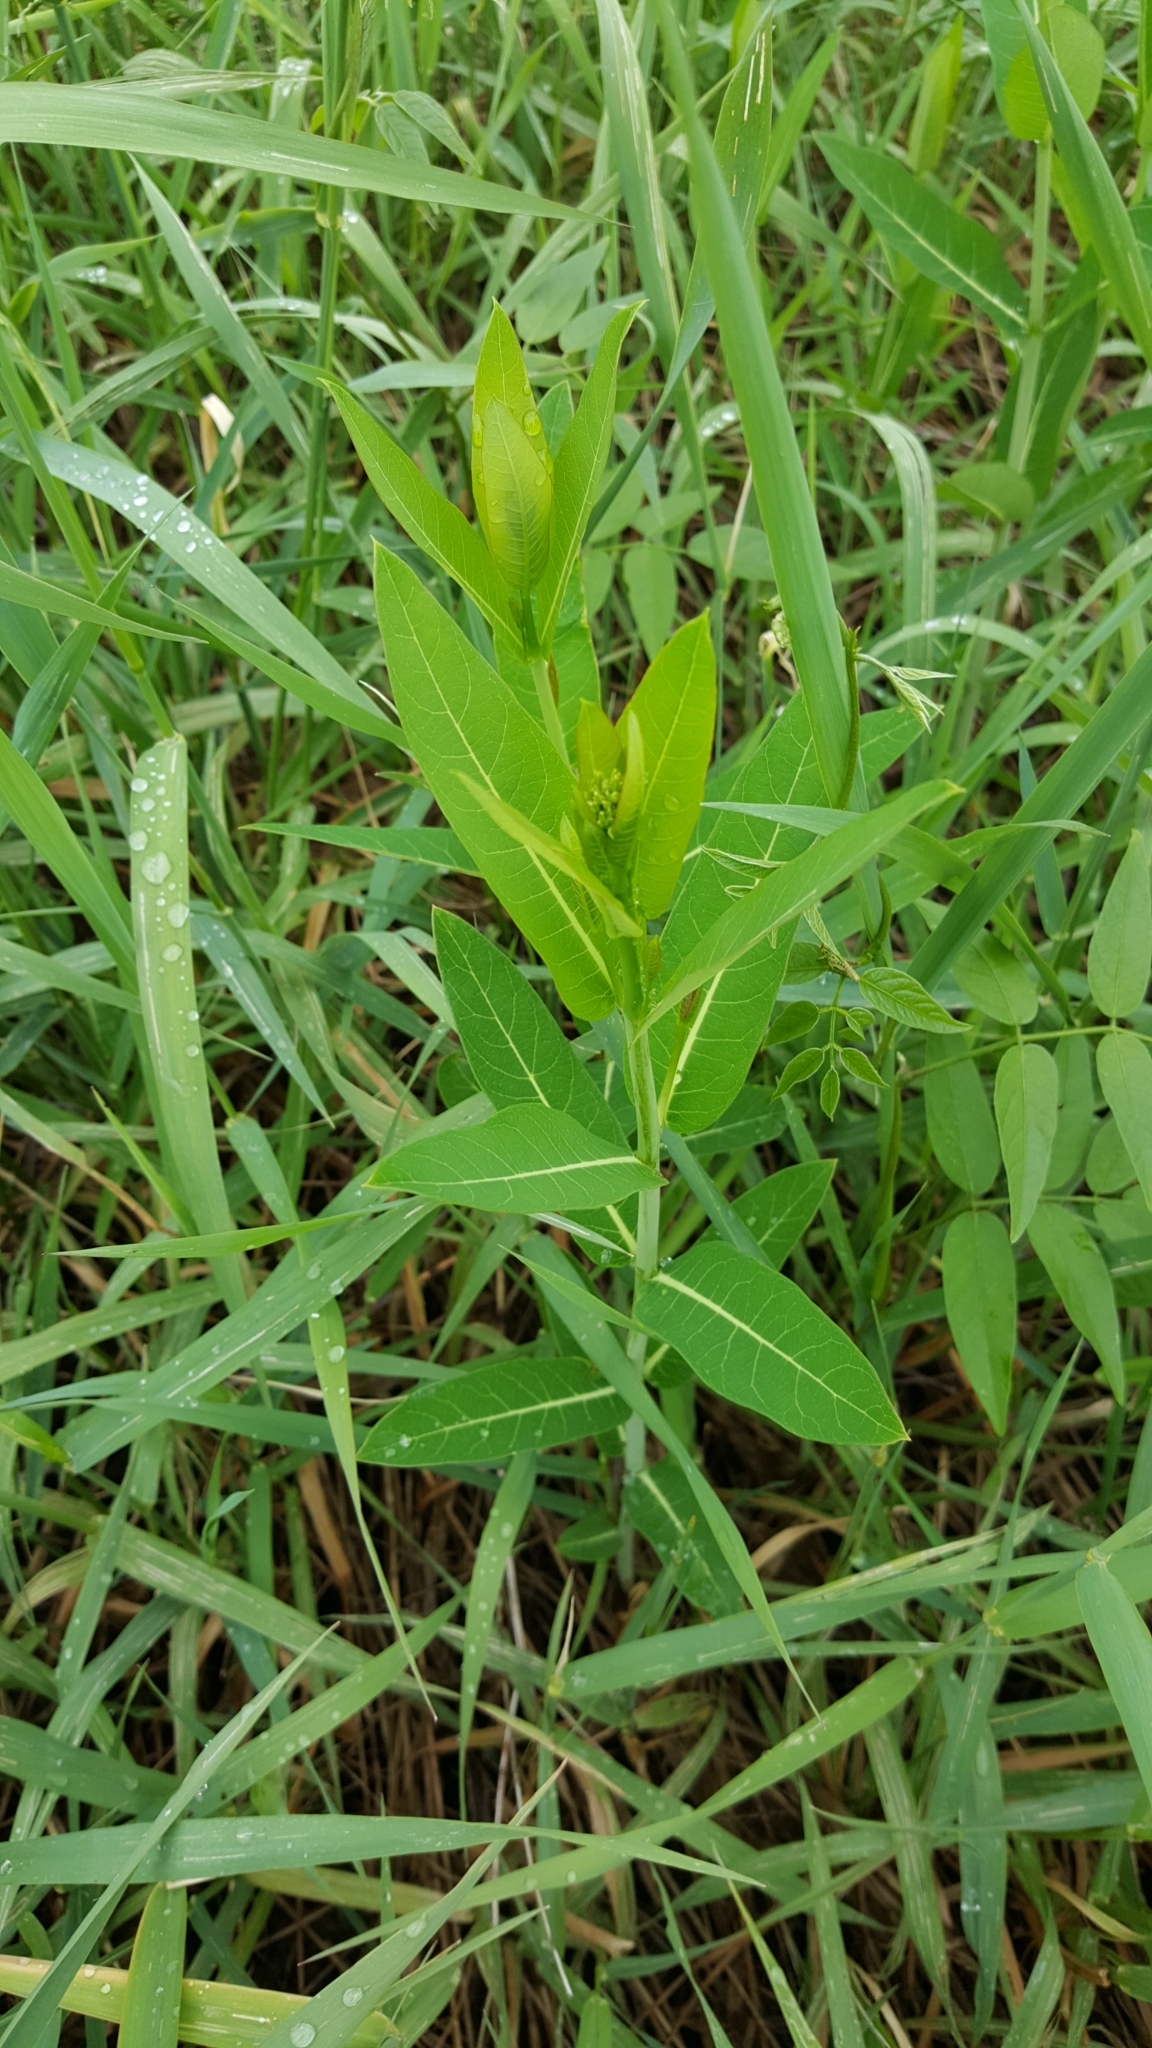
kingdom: Plantae
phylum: Tracheophyta
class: Magnoliopsida
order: Gentianales
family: Apocynaceae
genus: Apocynum
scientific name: Apocynum cannabinum
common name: Hemp dogbane
